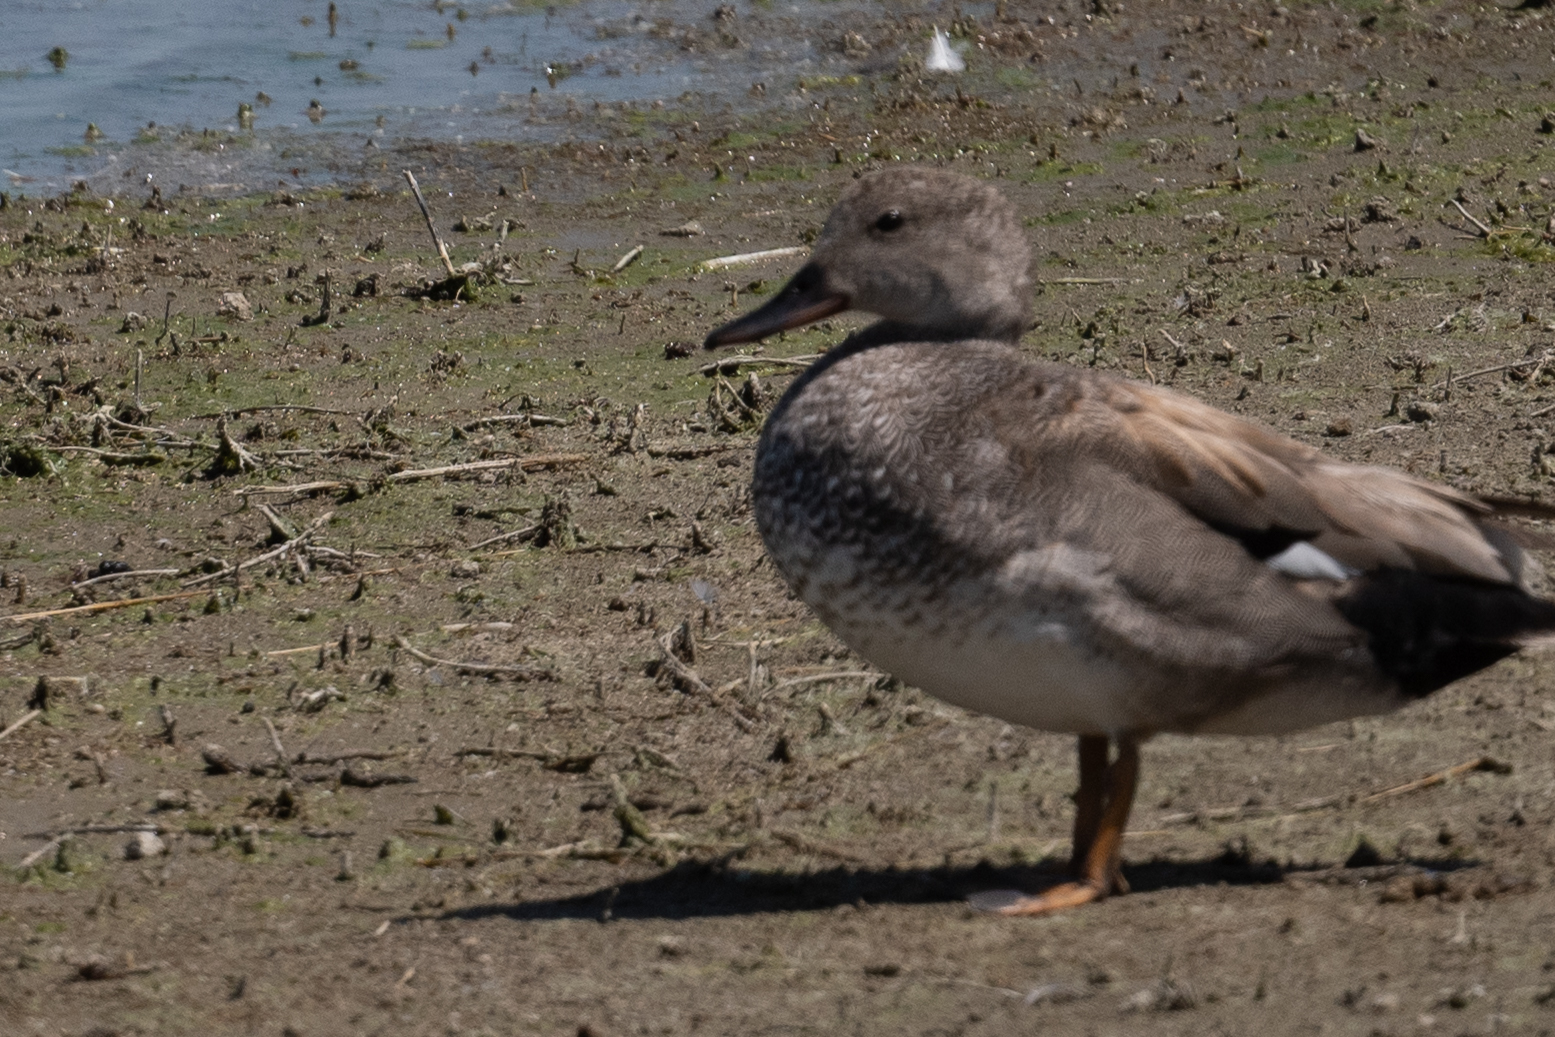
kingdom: Animalia
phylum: Chordata
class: Aves
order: Anseriformes
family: Anatidae
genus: Mareca
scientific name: Mareca strepera
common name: Gadwall
